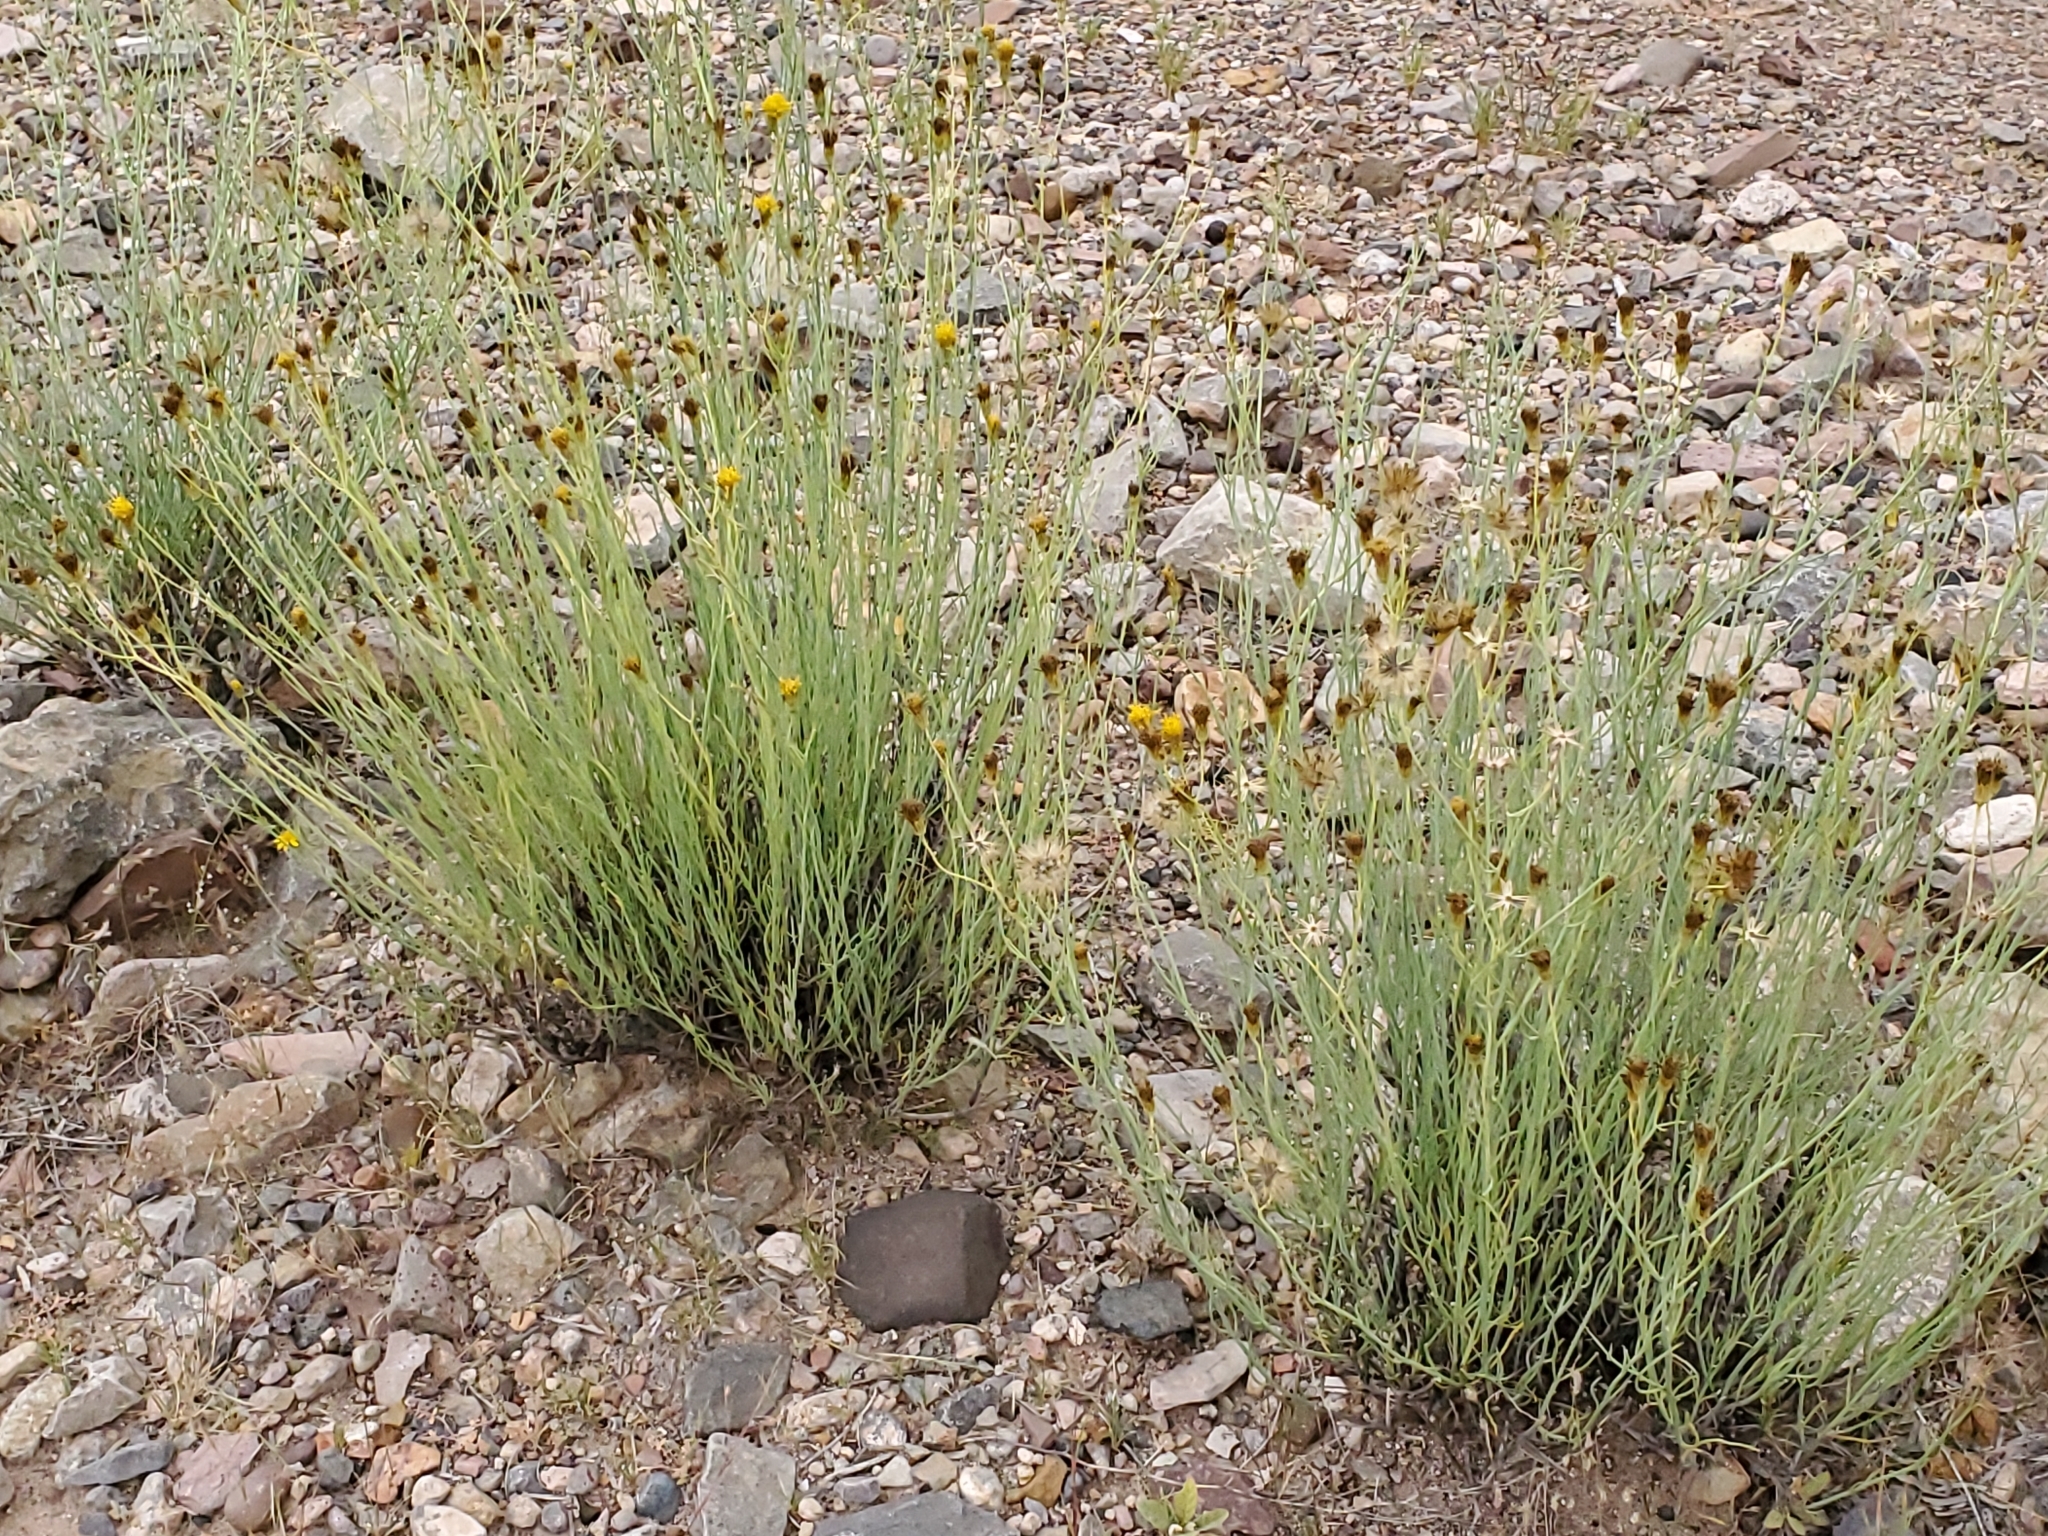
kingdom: Plantae
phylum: Tracheophyta
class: Magnoliopsida
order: Asterales
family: Asteraceae
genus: Porophyllum
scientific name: Porophyllum scoparium
